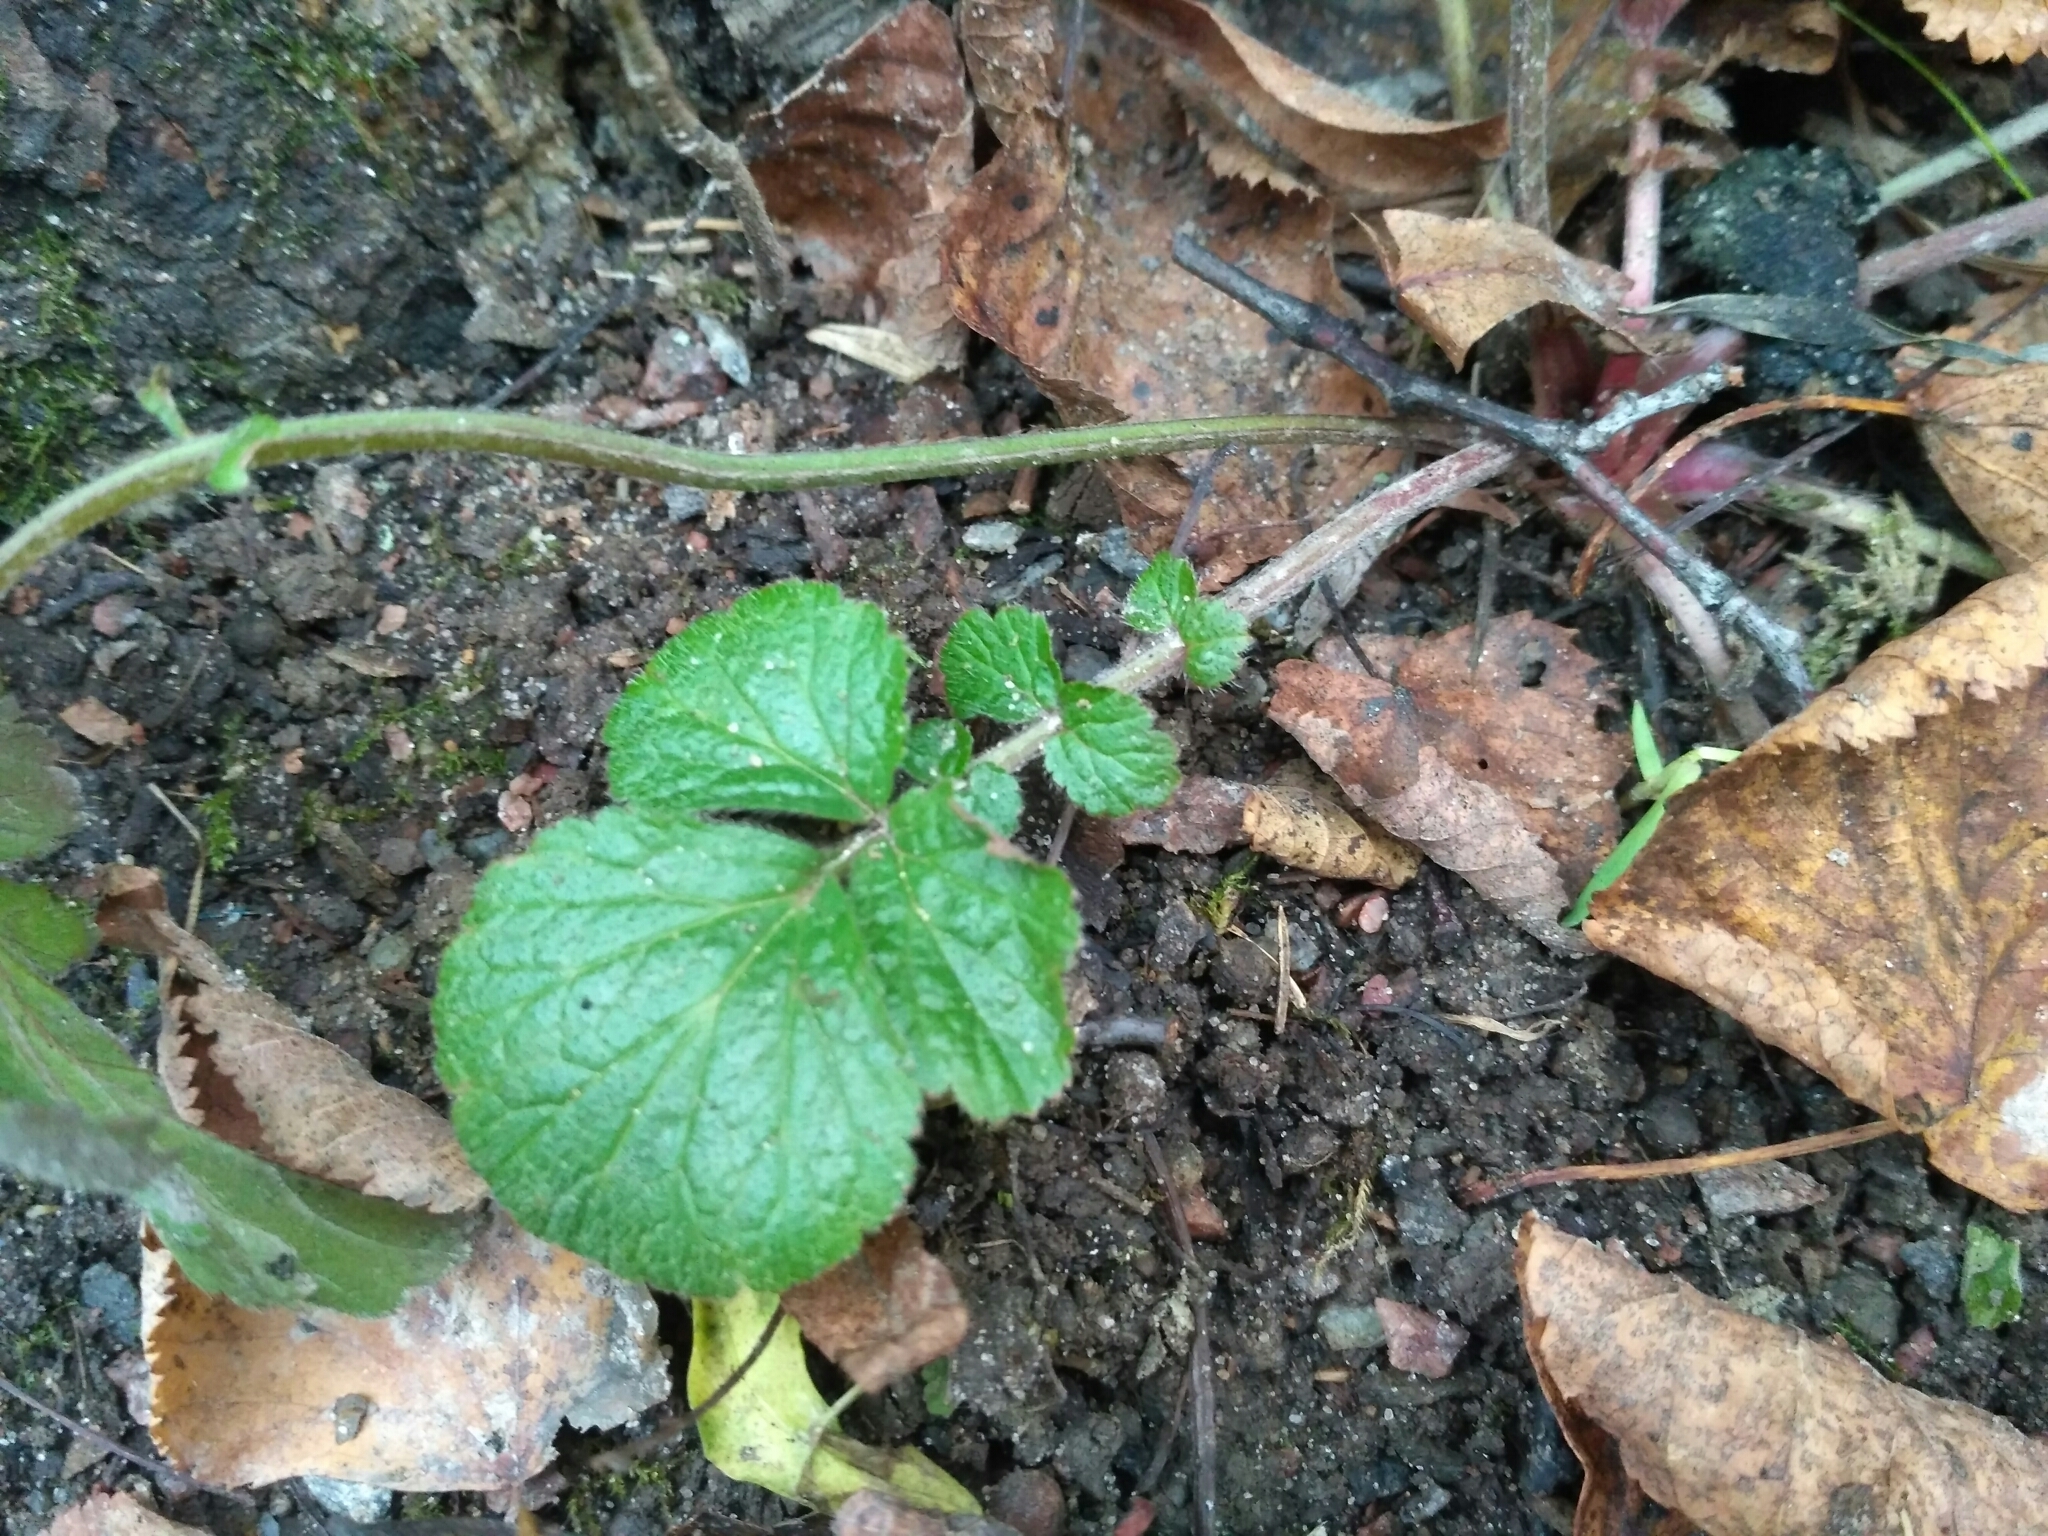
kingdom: Plantae
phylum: Tracheophyta
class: Magnoliopsida
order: Rosales
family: Rosaceae
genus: Geum
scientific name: Geum
